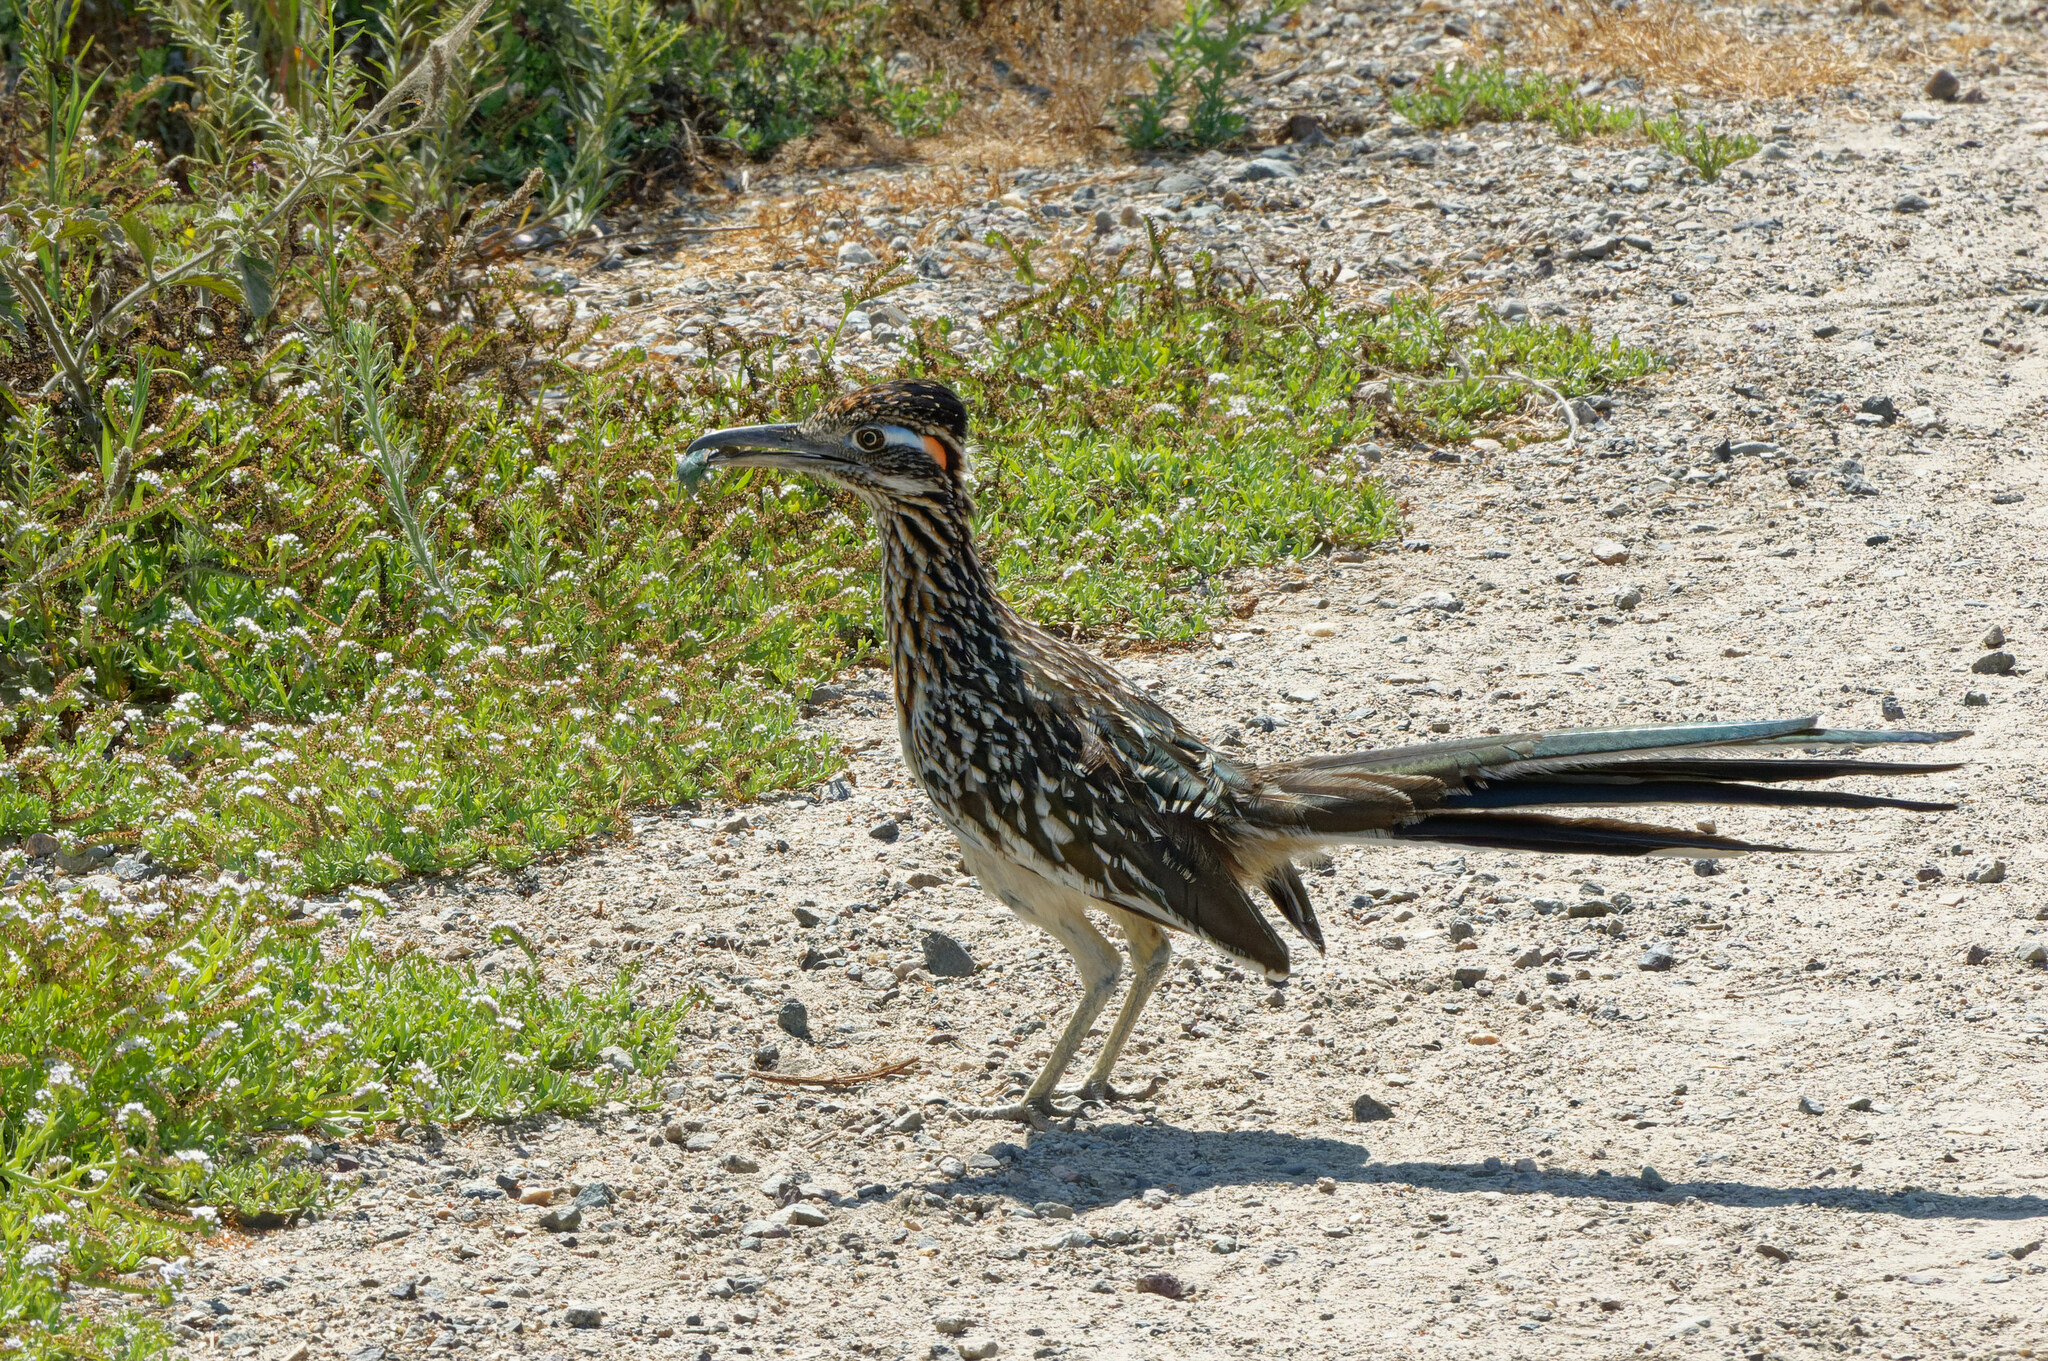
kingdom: Animalia
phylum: Chordata
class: Aves
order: Cuculiformes
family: Cuculidae
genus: Geococcyx
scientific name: Geococcyx californianus
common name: Greater roadrunner
